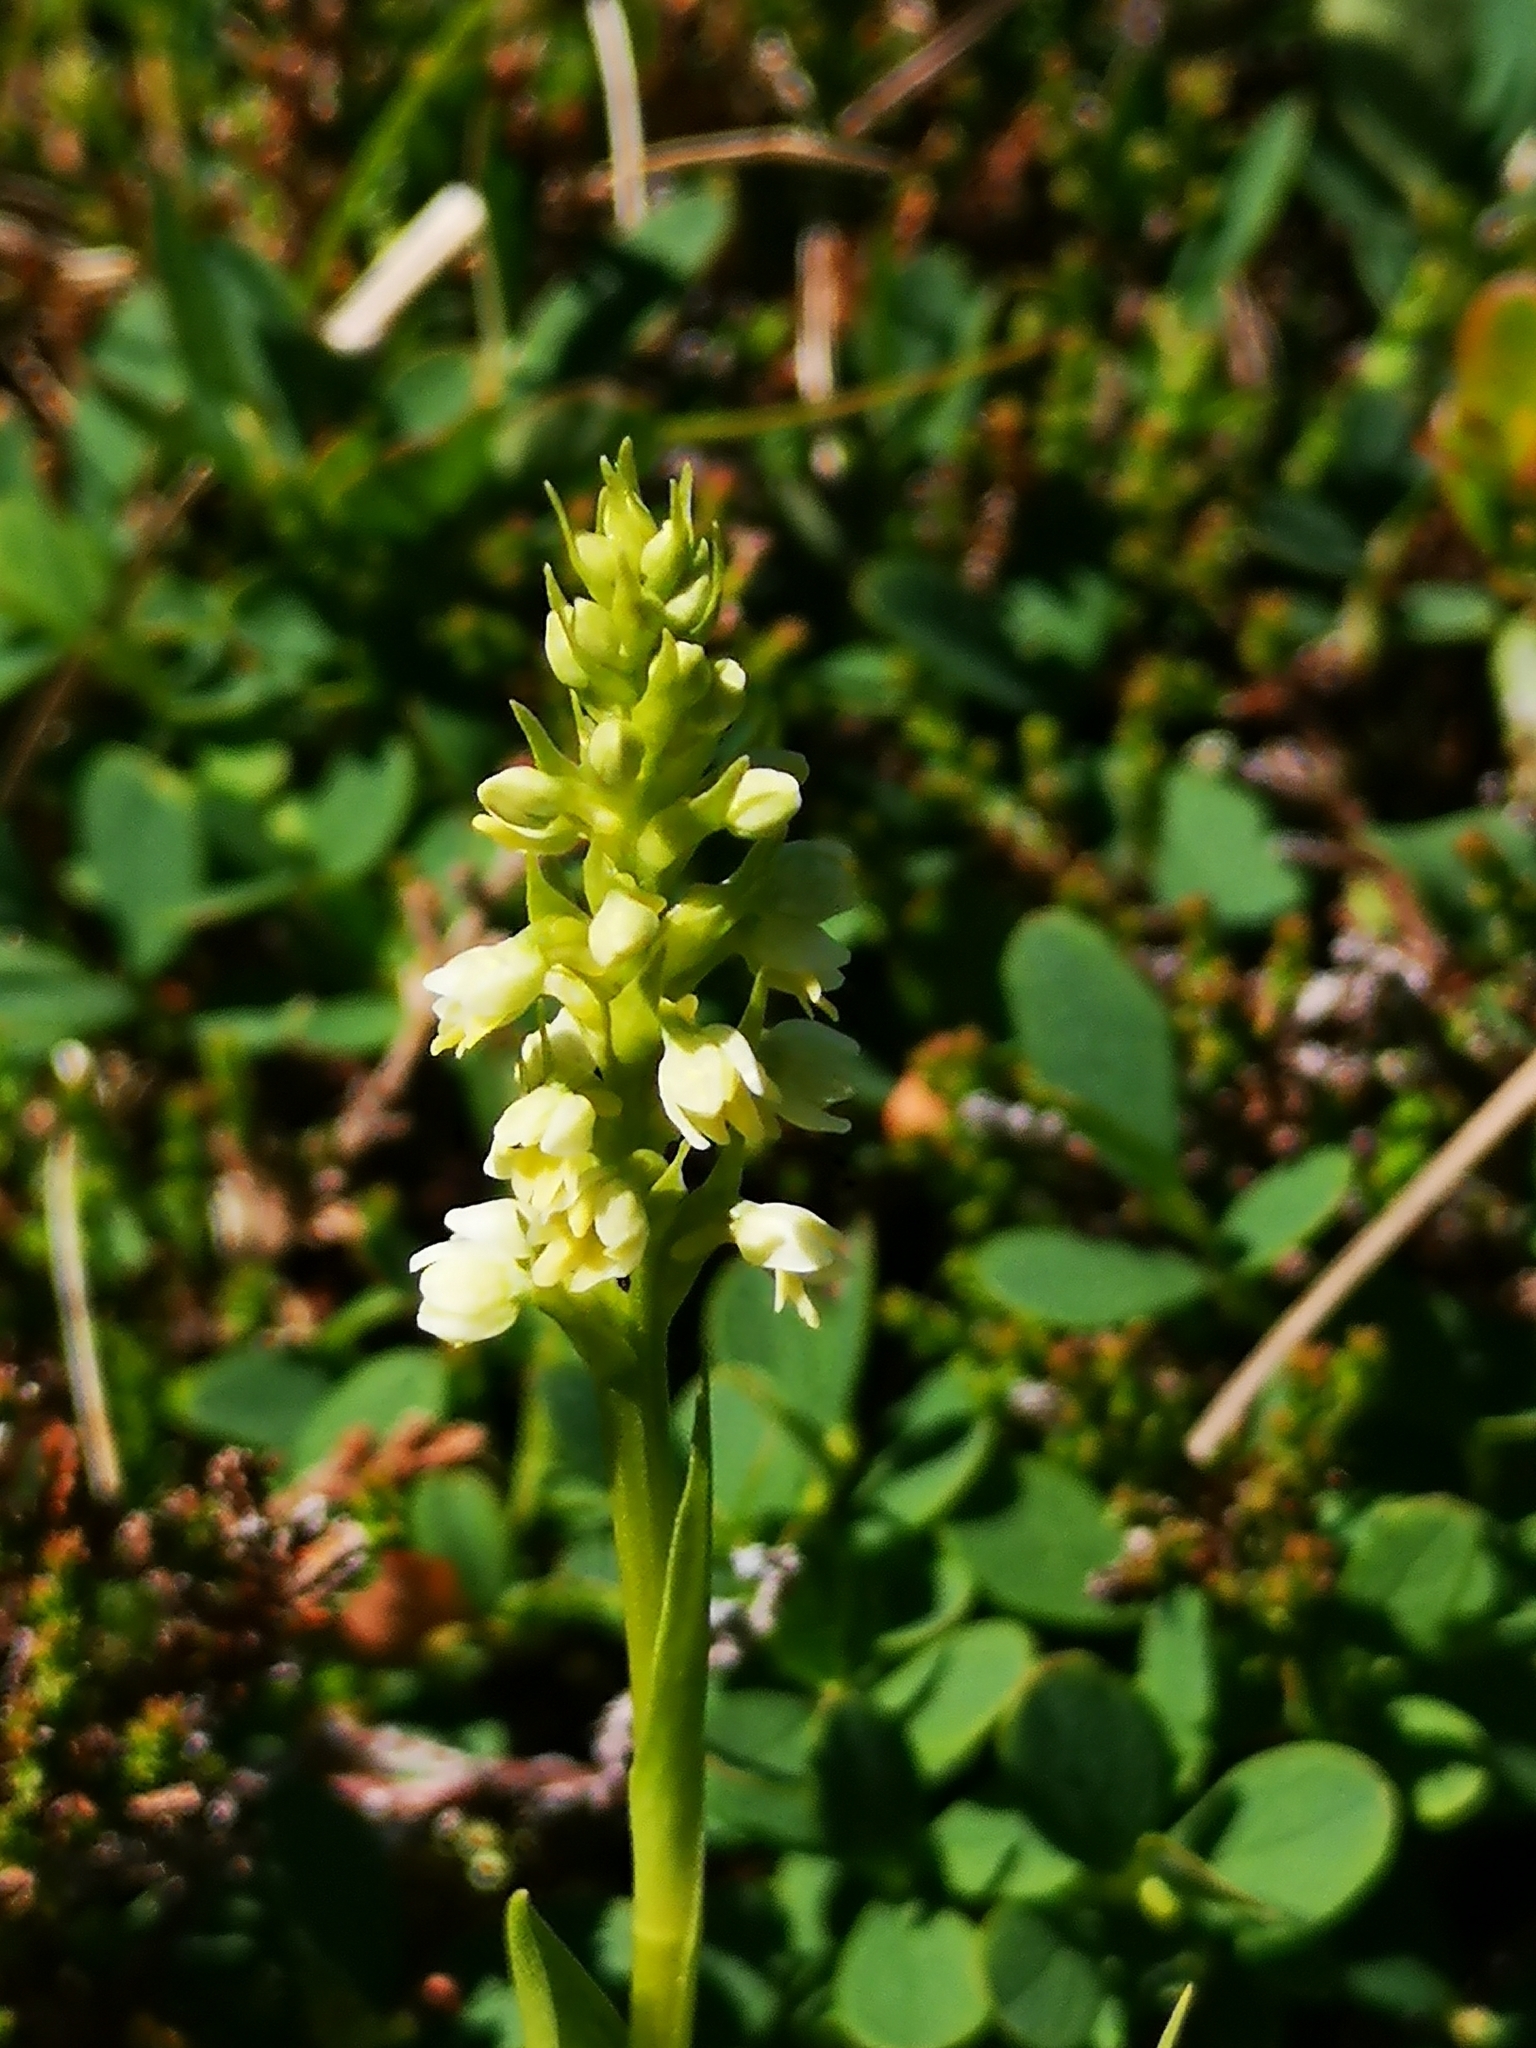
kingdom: Plantae
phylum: Tracheophyta
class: Liliopsida
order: Asparagales
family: Orchidaceae
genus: Pseudorchis
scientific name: Pseudorchis albida
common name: Small-white orchid
